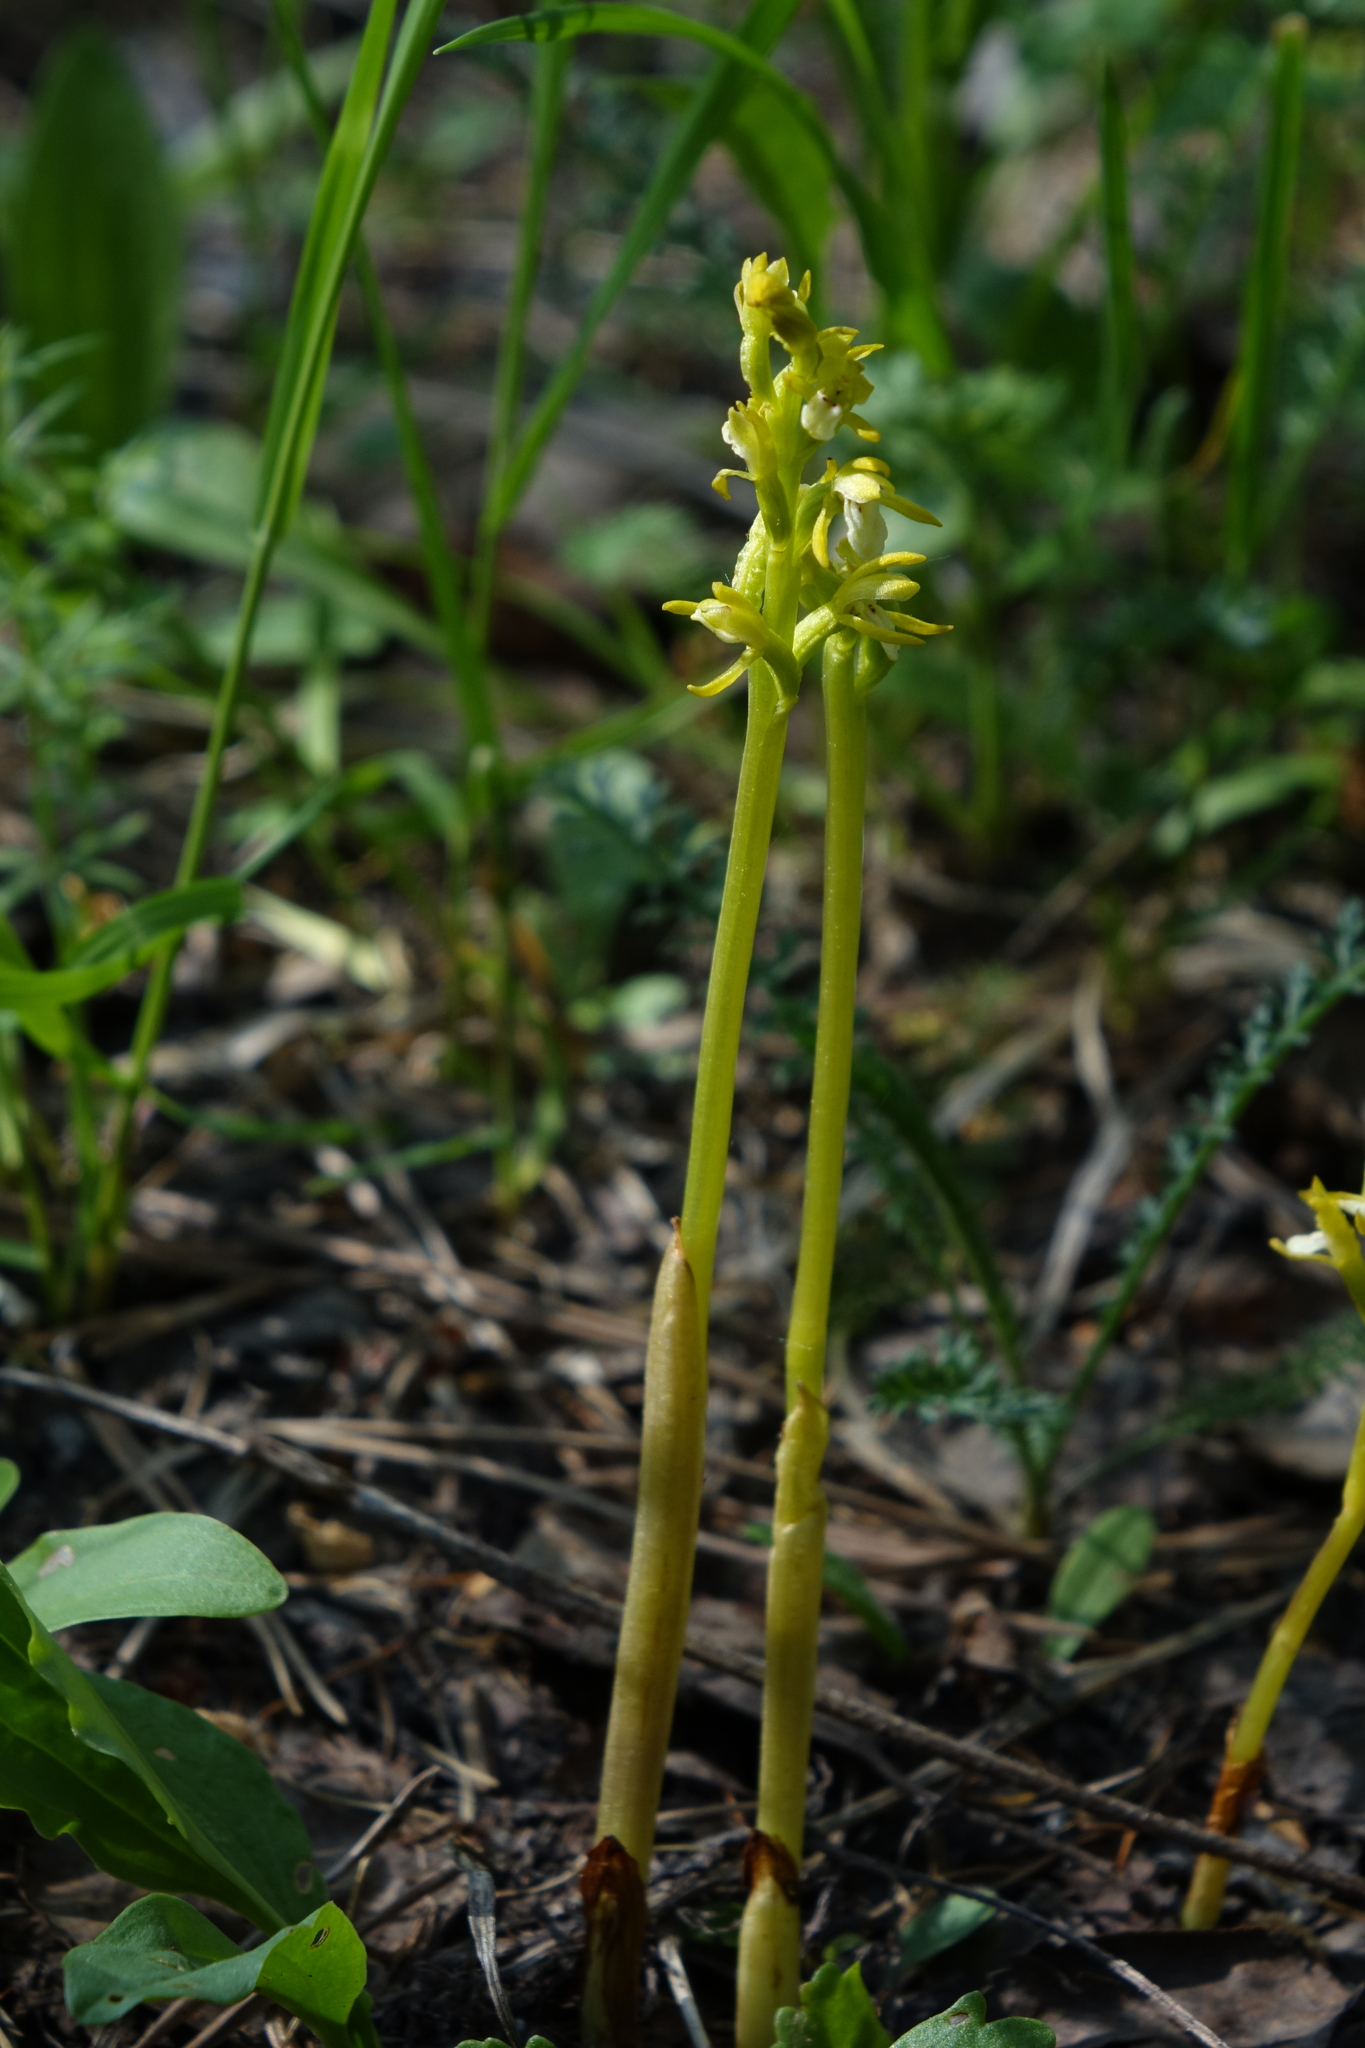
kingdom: Plantae
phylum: Tracheophyta
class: Liliopsida
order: Asparagales
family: Orchidaceae
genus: Corallorhiza
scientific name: Corallorhiza trifida
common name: Yellow coralroot
